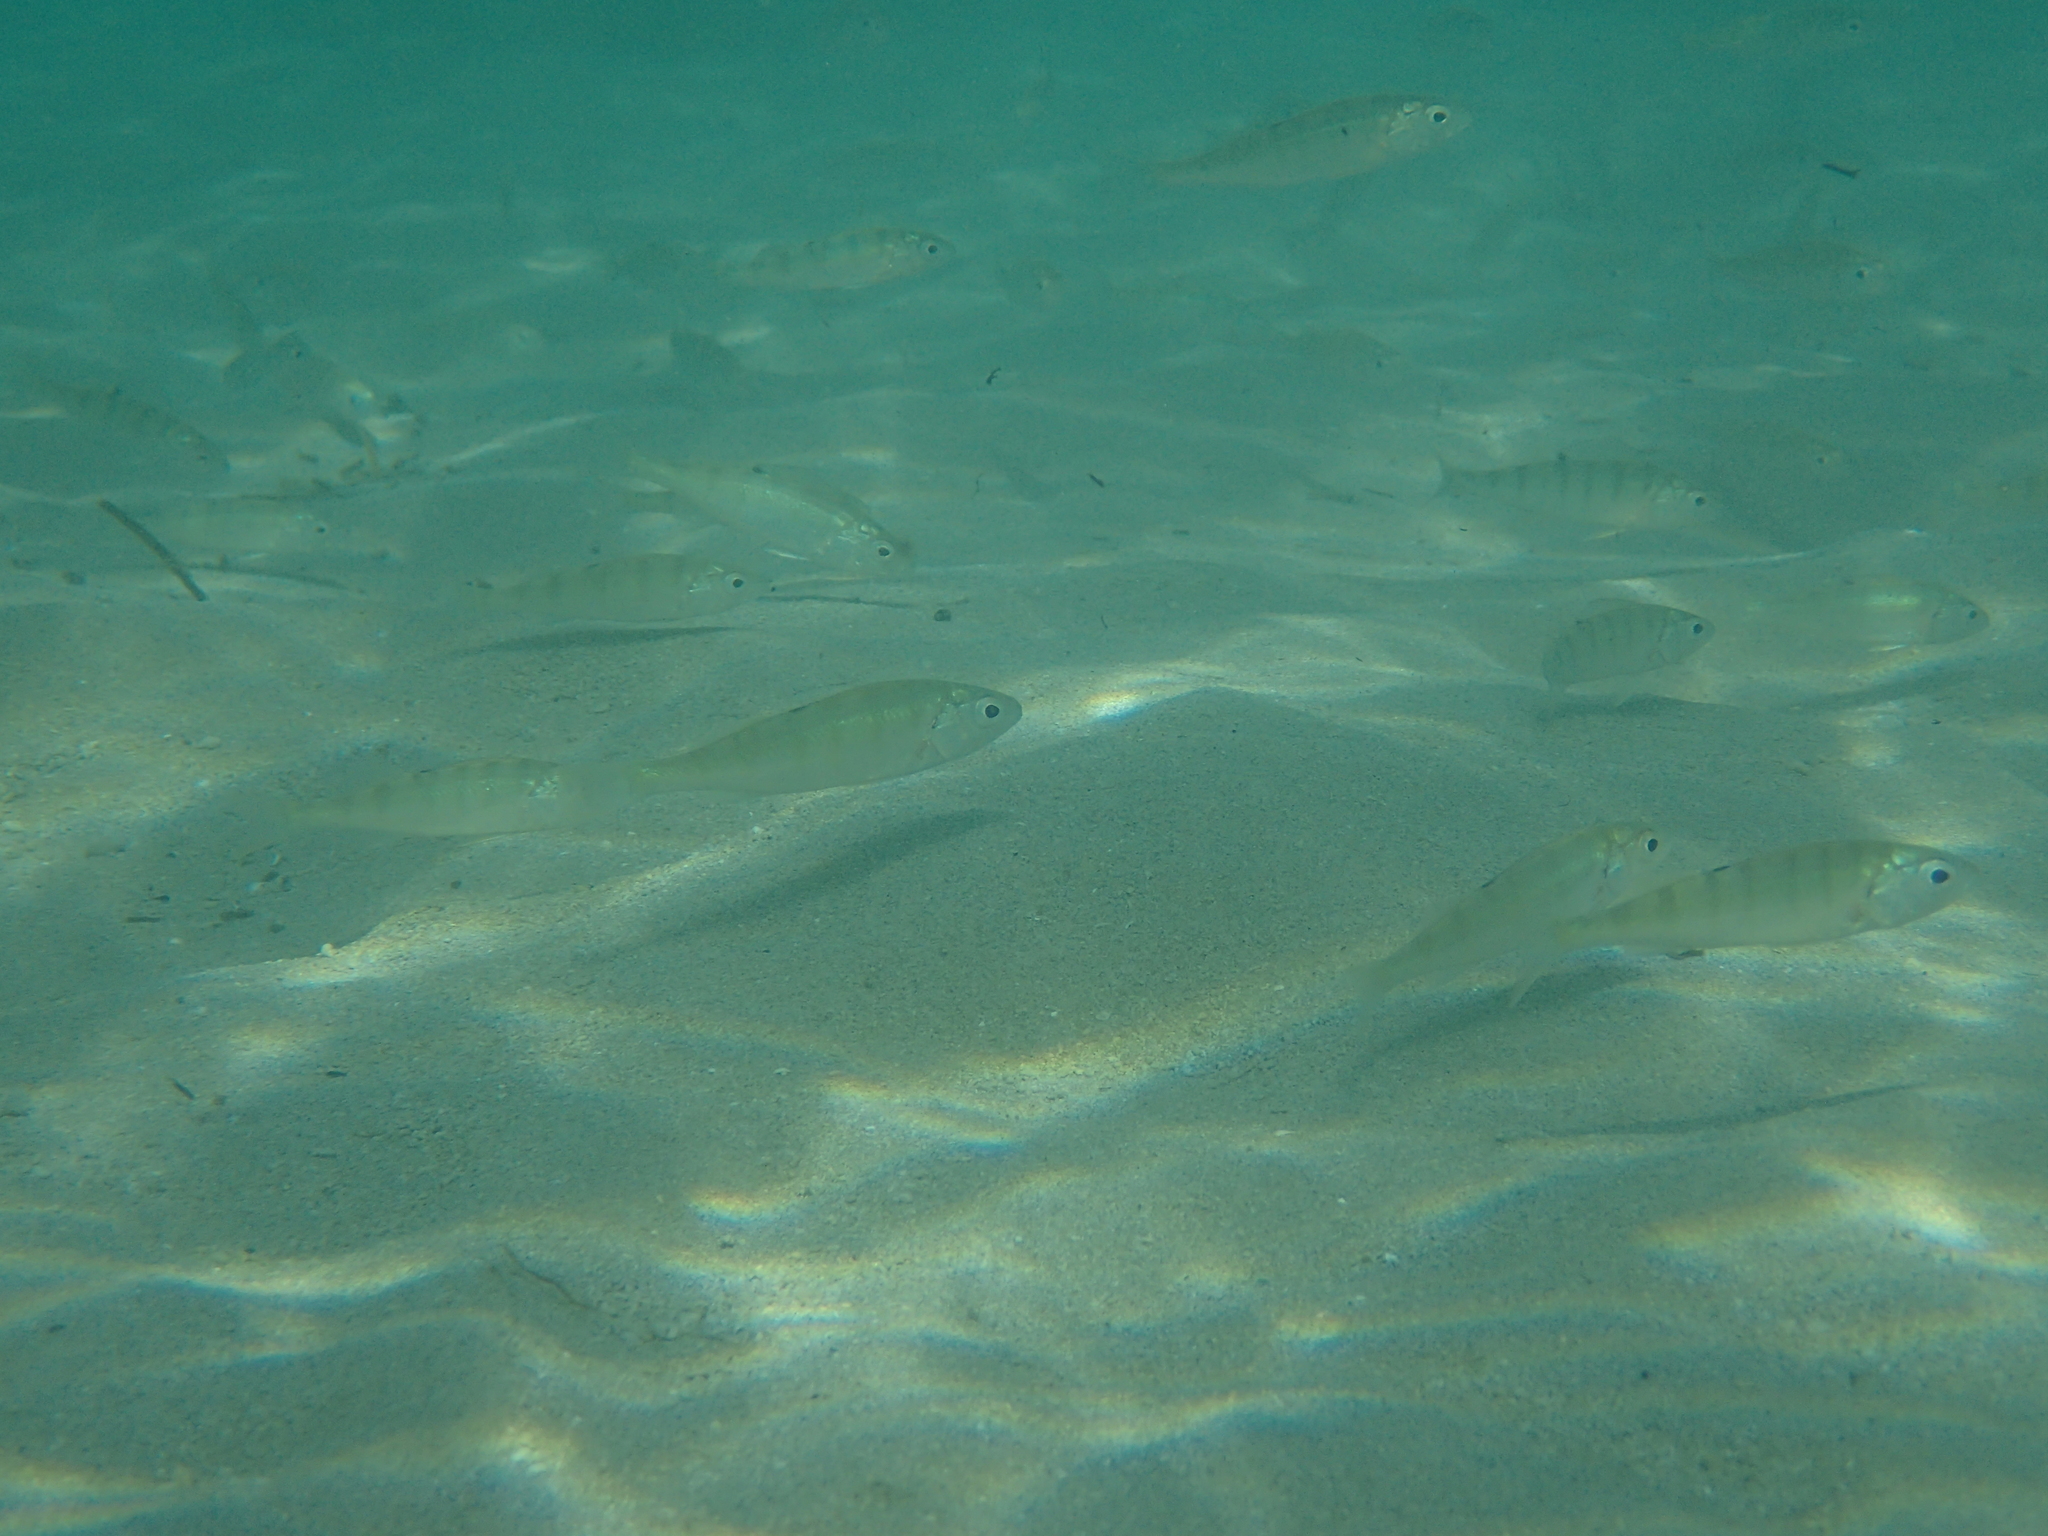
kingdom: Animalia
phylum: Chordata
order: Perciformes
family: Percidae
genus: Perca
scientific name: Perca fluviatilis
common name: Perch
